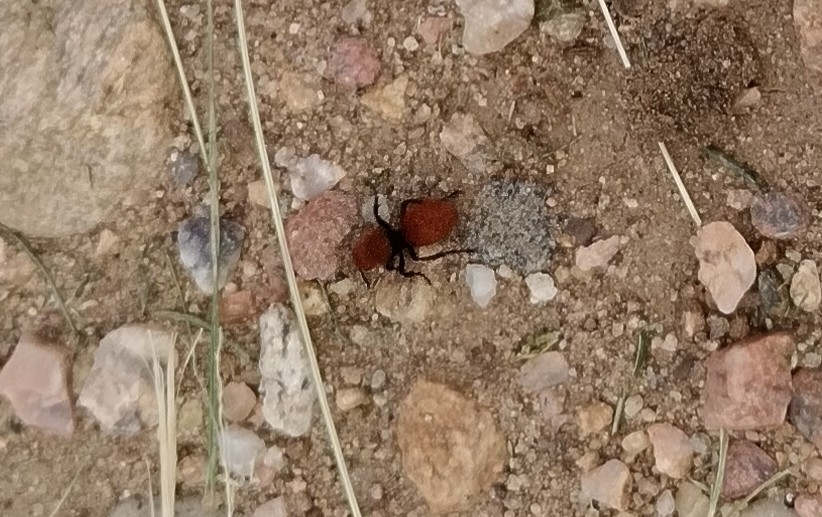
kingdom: Animalia
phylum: Arthropoda
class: Insecta
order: Hymenoptera
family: Mutillidae
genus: Dasymutilla
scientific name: Dasymutilla vestita
